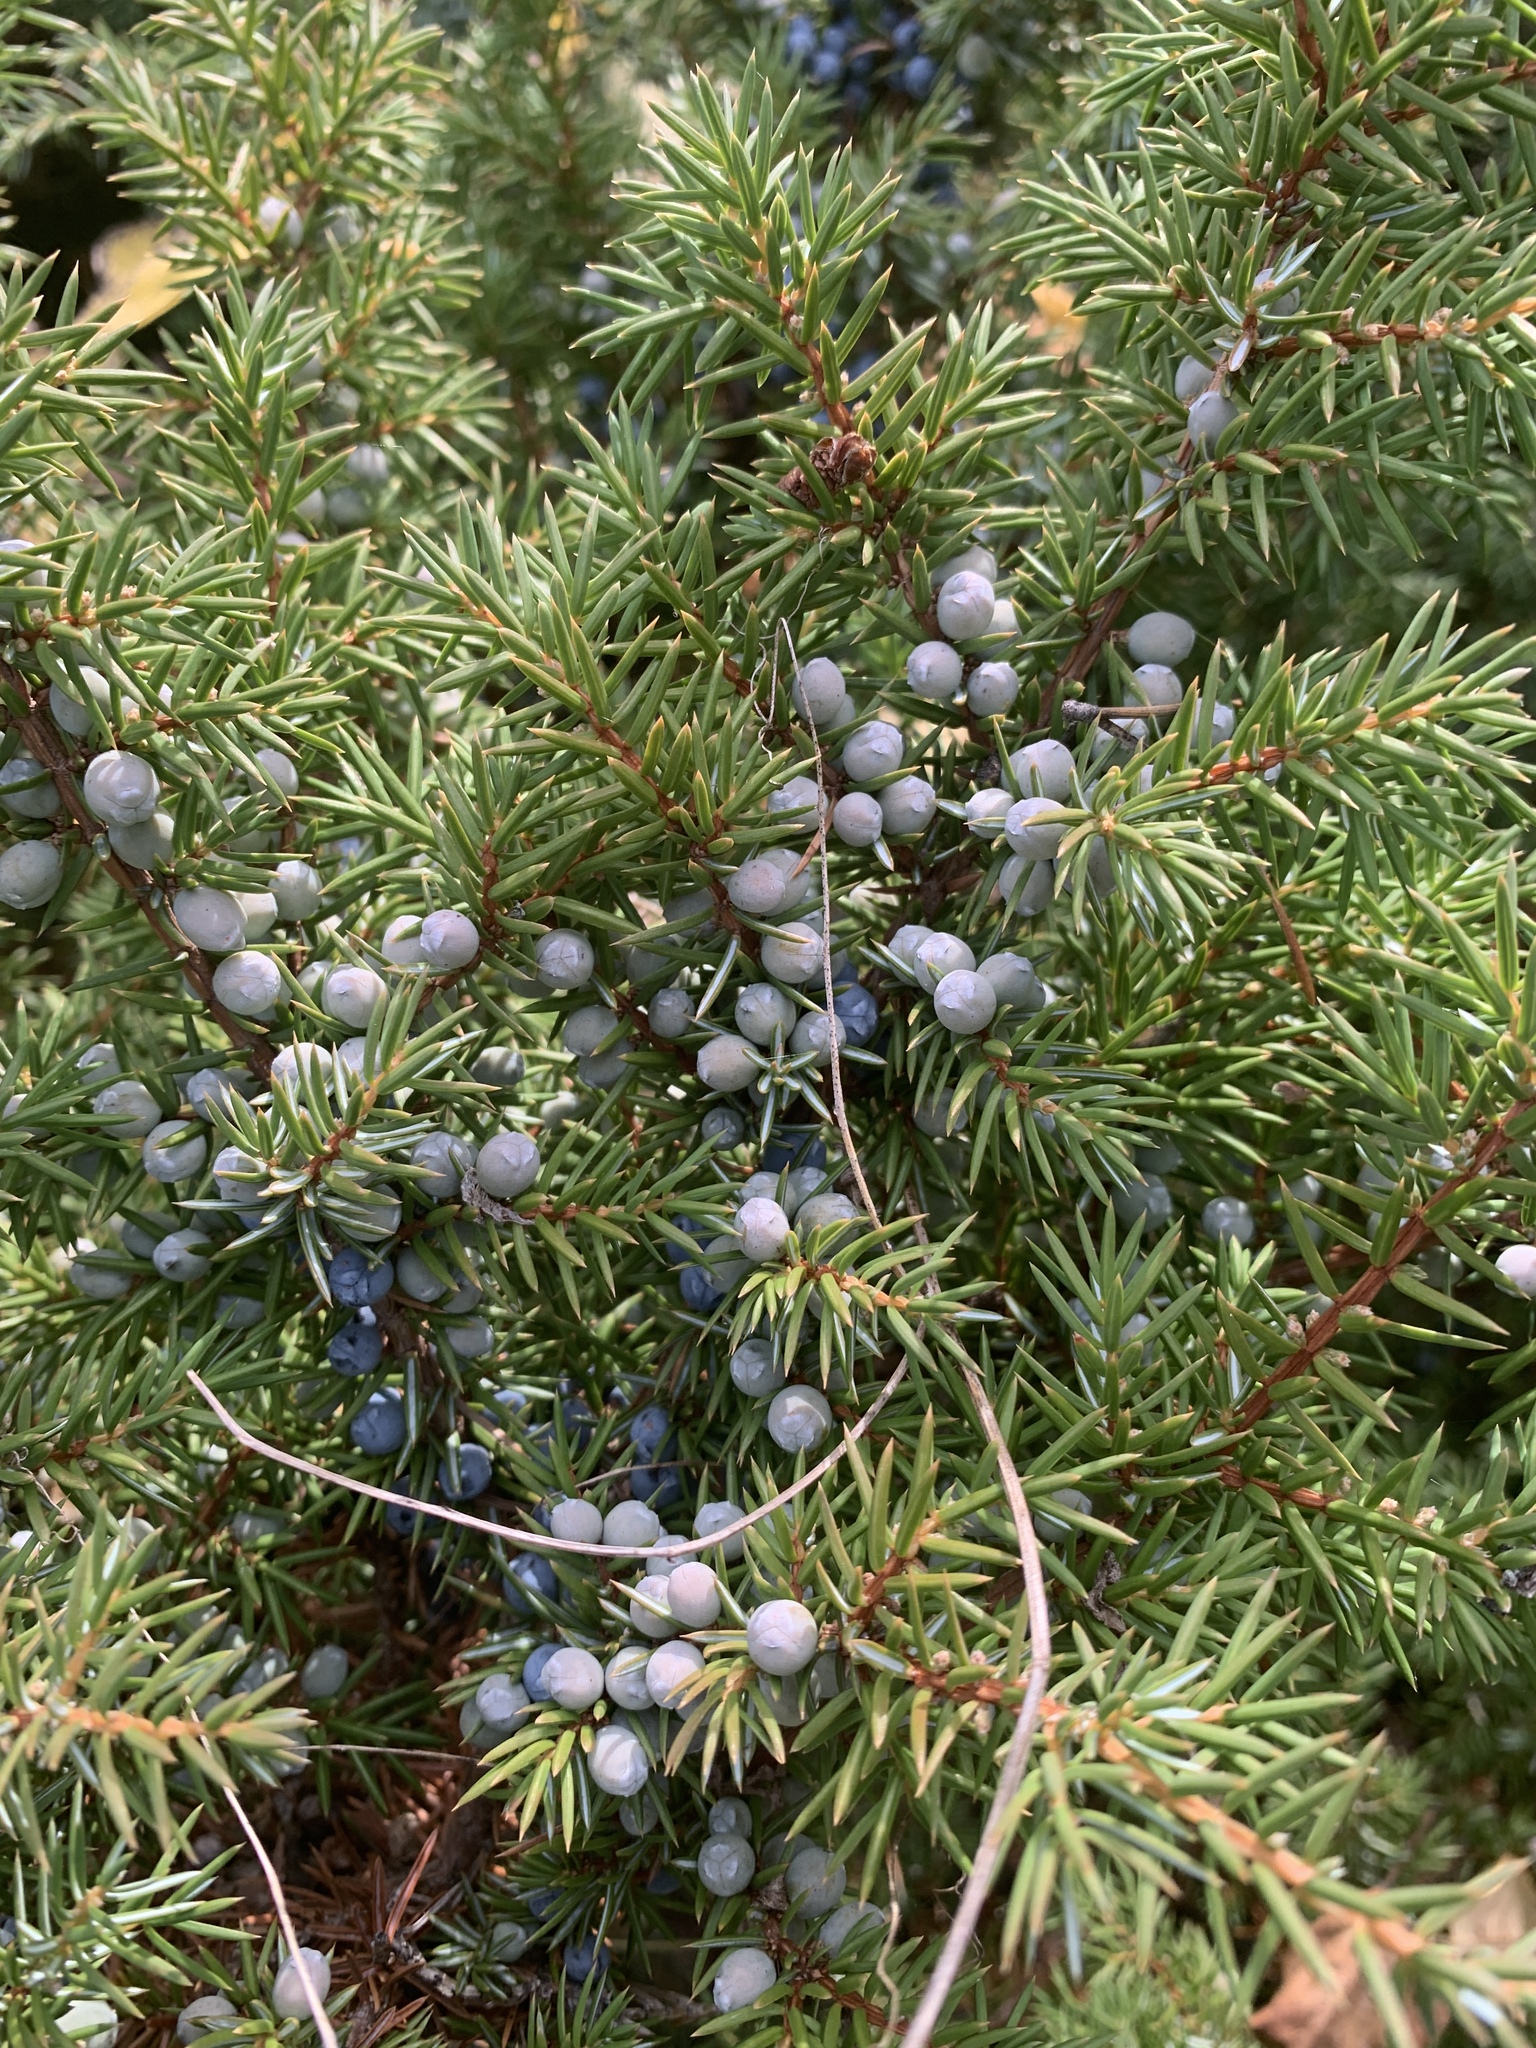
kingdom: Plantae
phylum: Tracheophyta
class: Pinopsida
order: Pinales
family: Cupressaceae
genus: Juniperus
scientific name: Juniperus communis
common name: Common juniper
